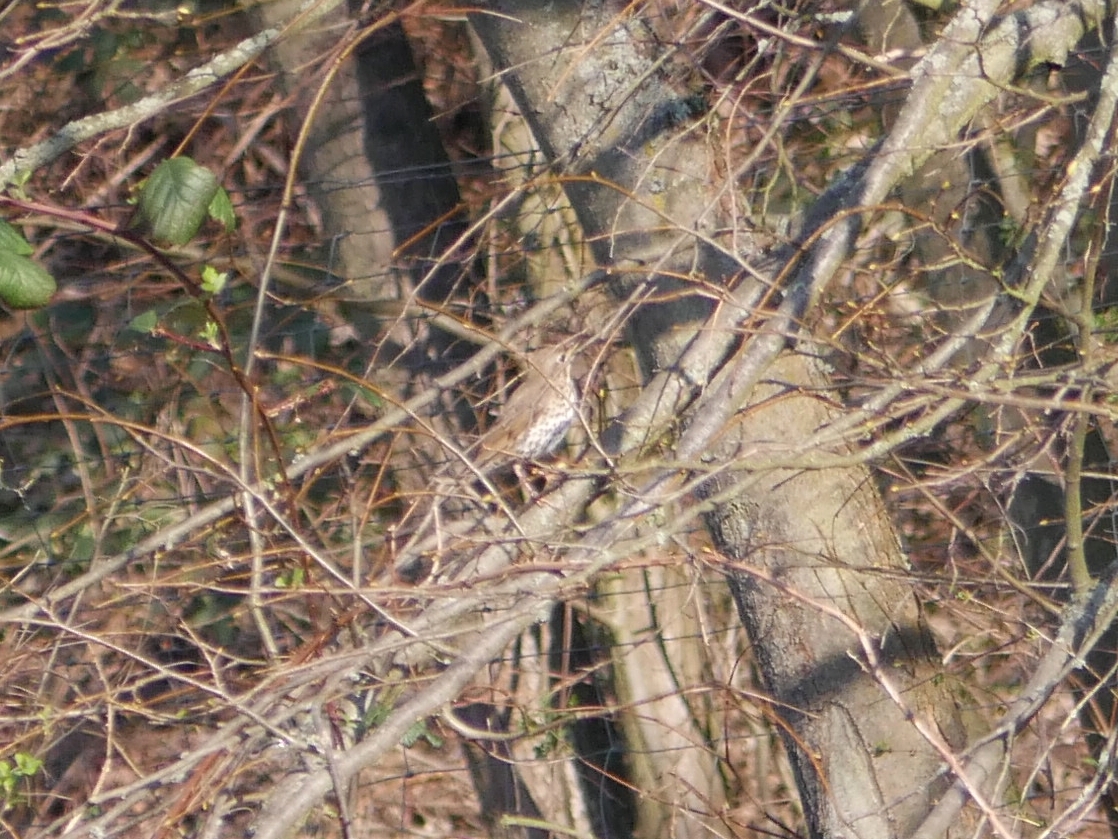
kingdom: Animalia
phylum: Chordata
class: Aves
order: Passeriformes
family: Turdidae
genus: Turdus
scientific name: Turdus philomelos
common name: Song thrush
